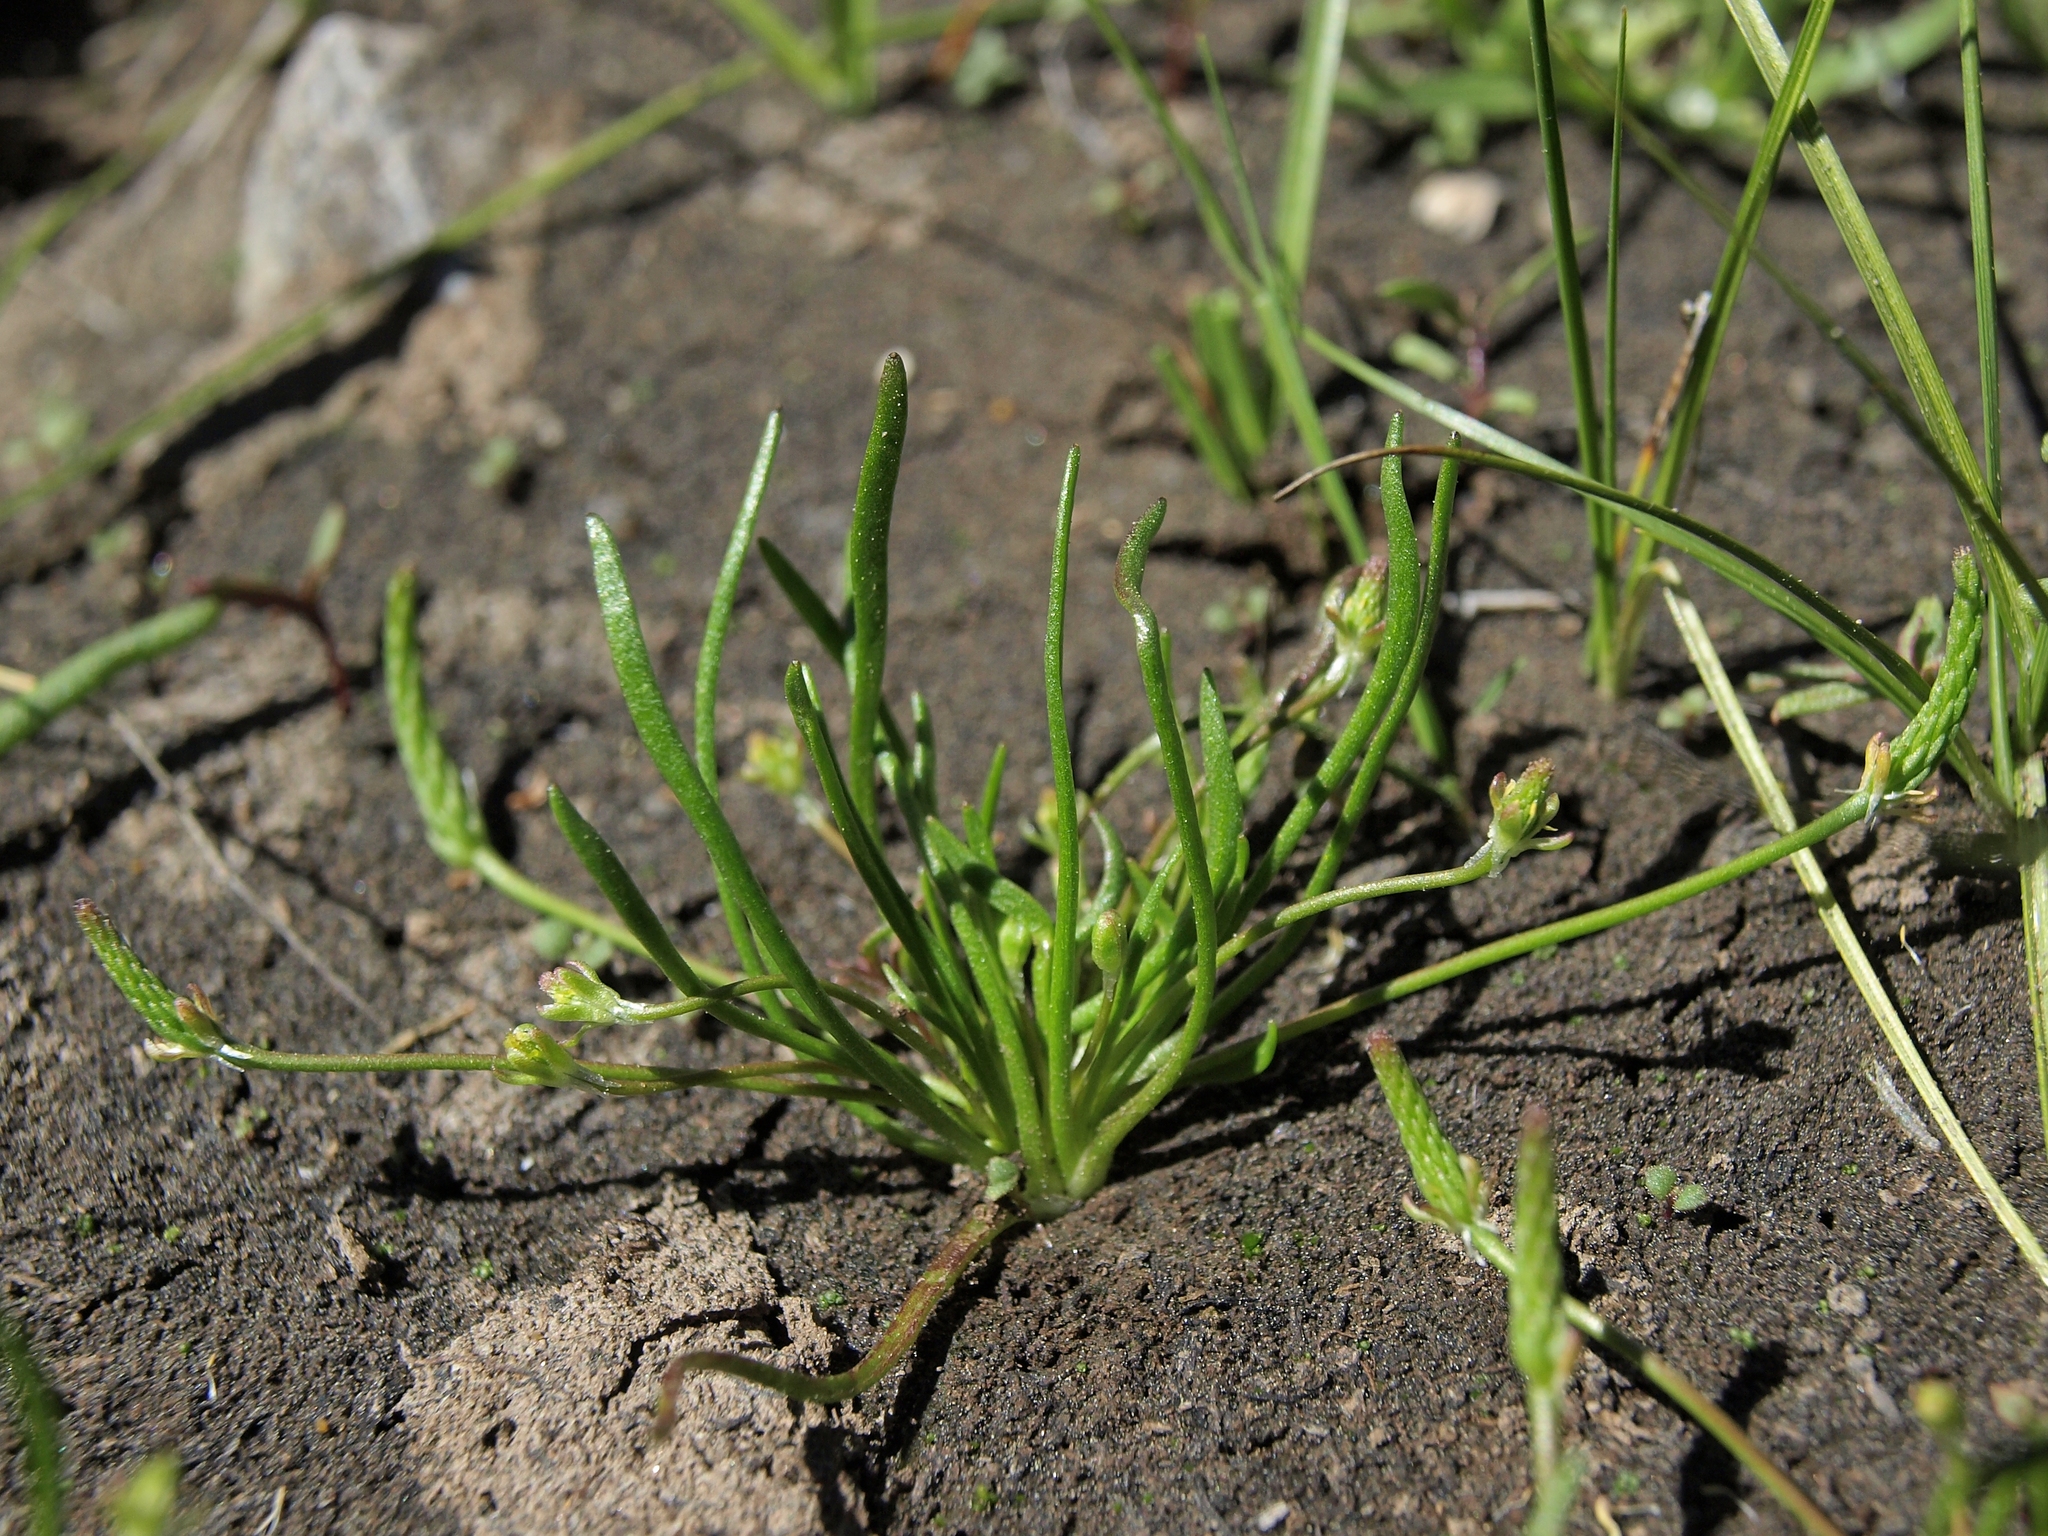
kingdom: Plantae
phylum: Tracheophyta
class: Magnoliopsida
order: Ranunculales
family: Ranunculaceae
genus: Myosurus
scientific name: Myosurus minimus
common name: Mousetail
